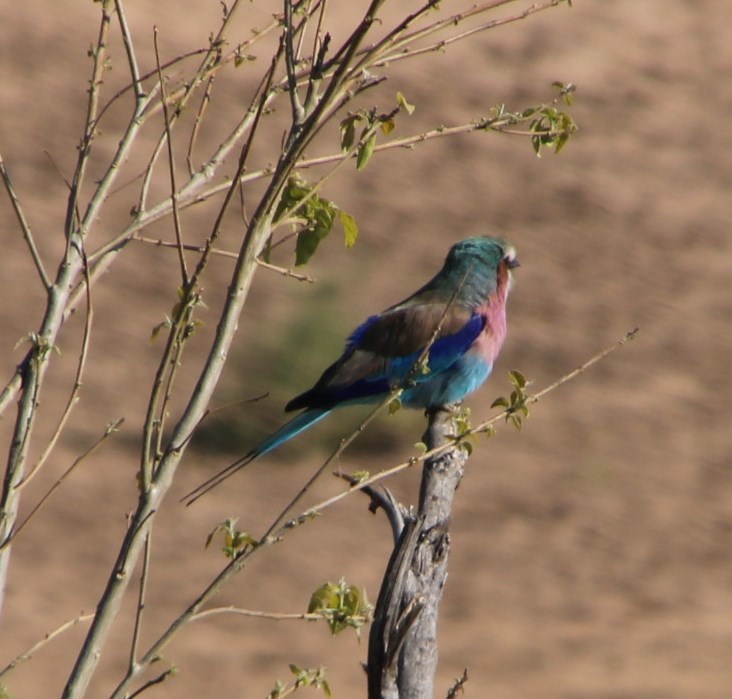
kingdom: Animalia
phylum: Chordata
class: Aves
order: Coraciiformes
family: Coraciidae
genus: Coracias
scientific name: Coracias caudatus
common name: Lilac-breasted roller
